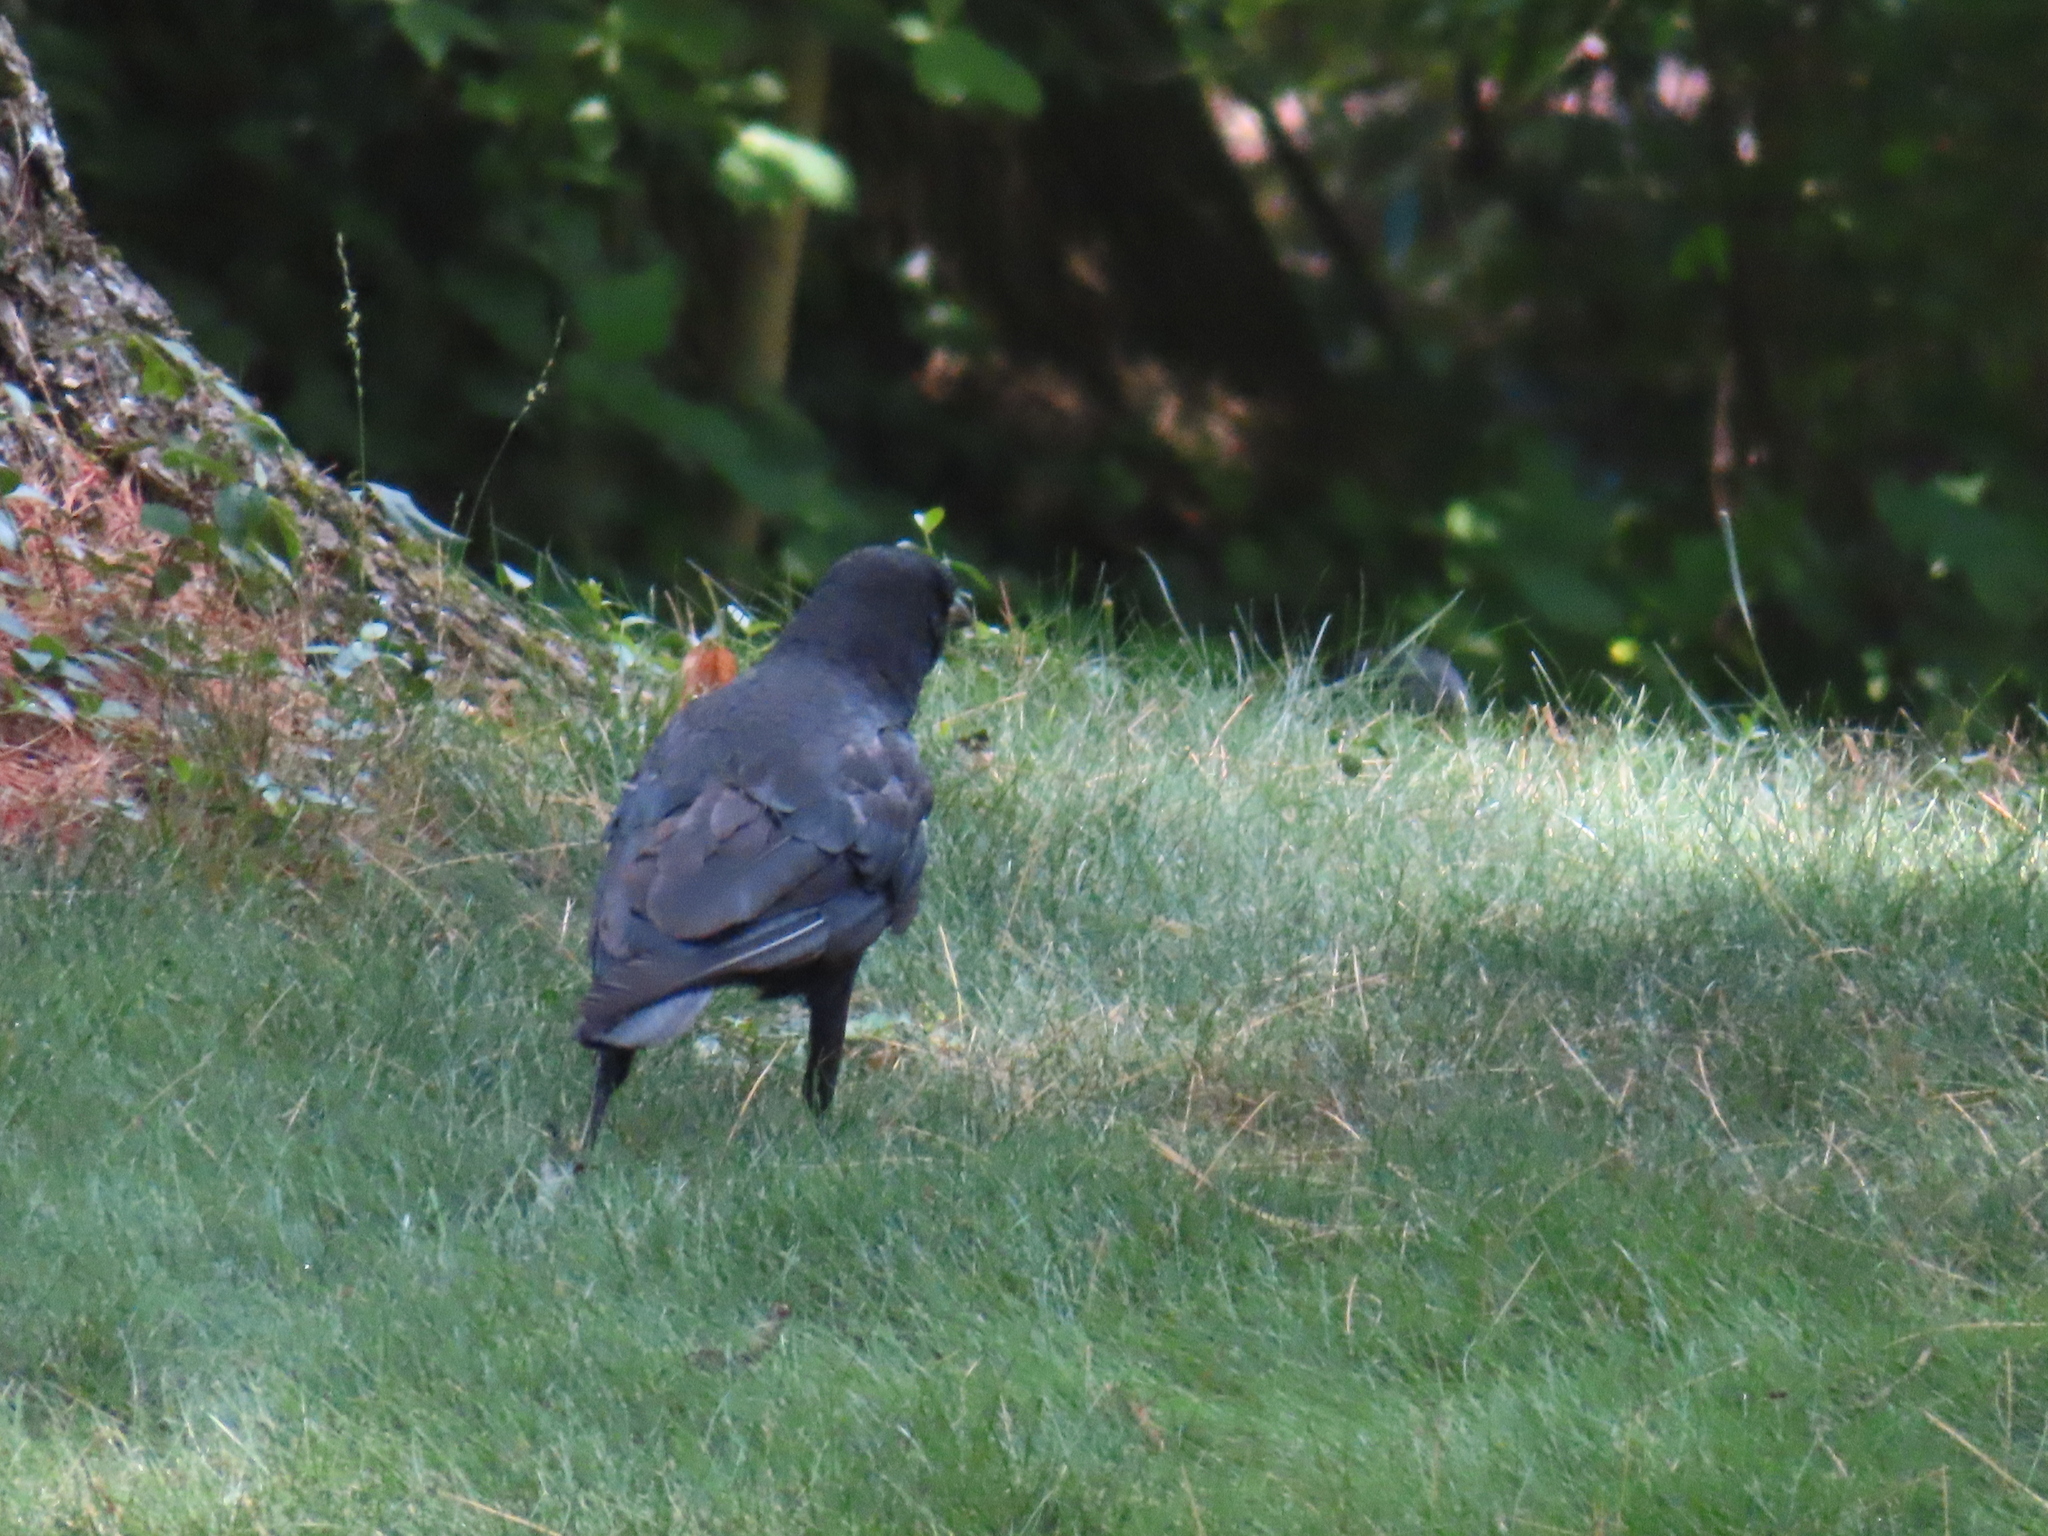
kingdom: Animalia
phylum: Chordata
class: Aves
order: Passeriformes
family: Corvidae
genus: Corvus
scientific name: Corvus brachyrhynchos
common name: American crow
